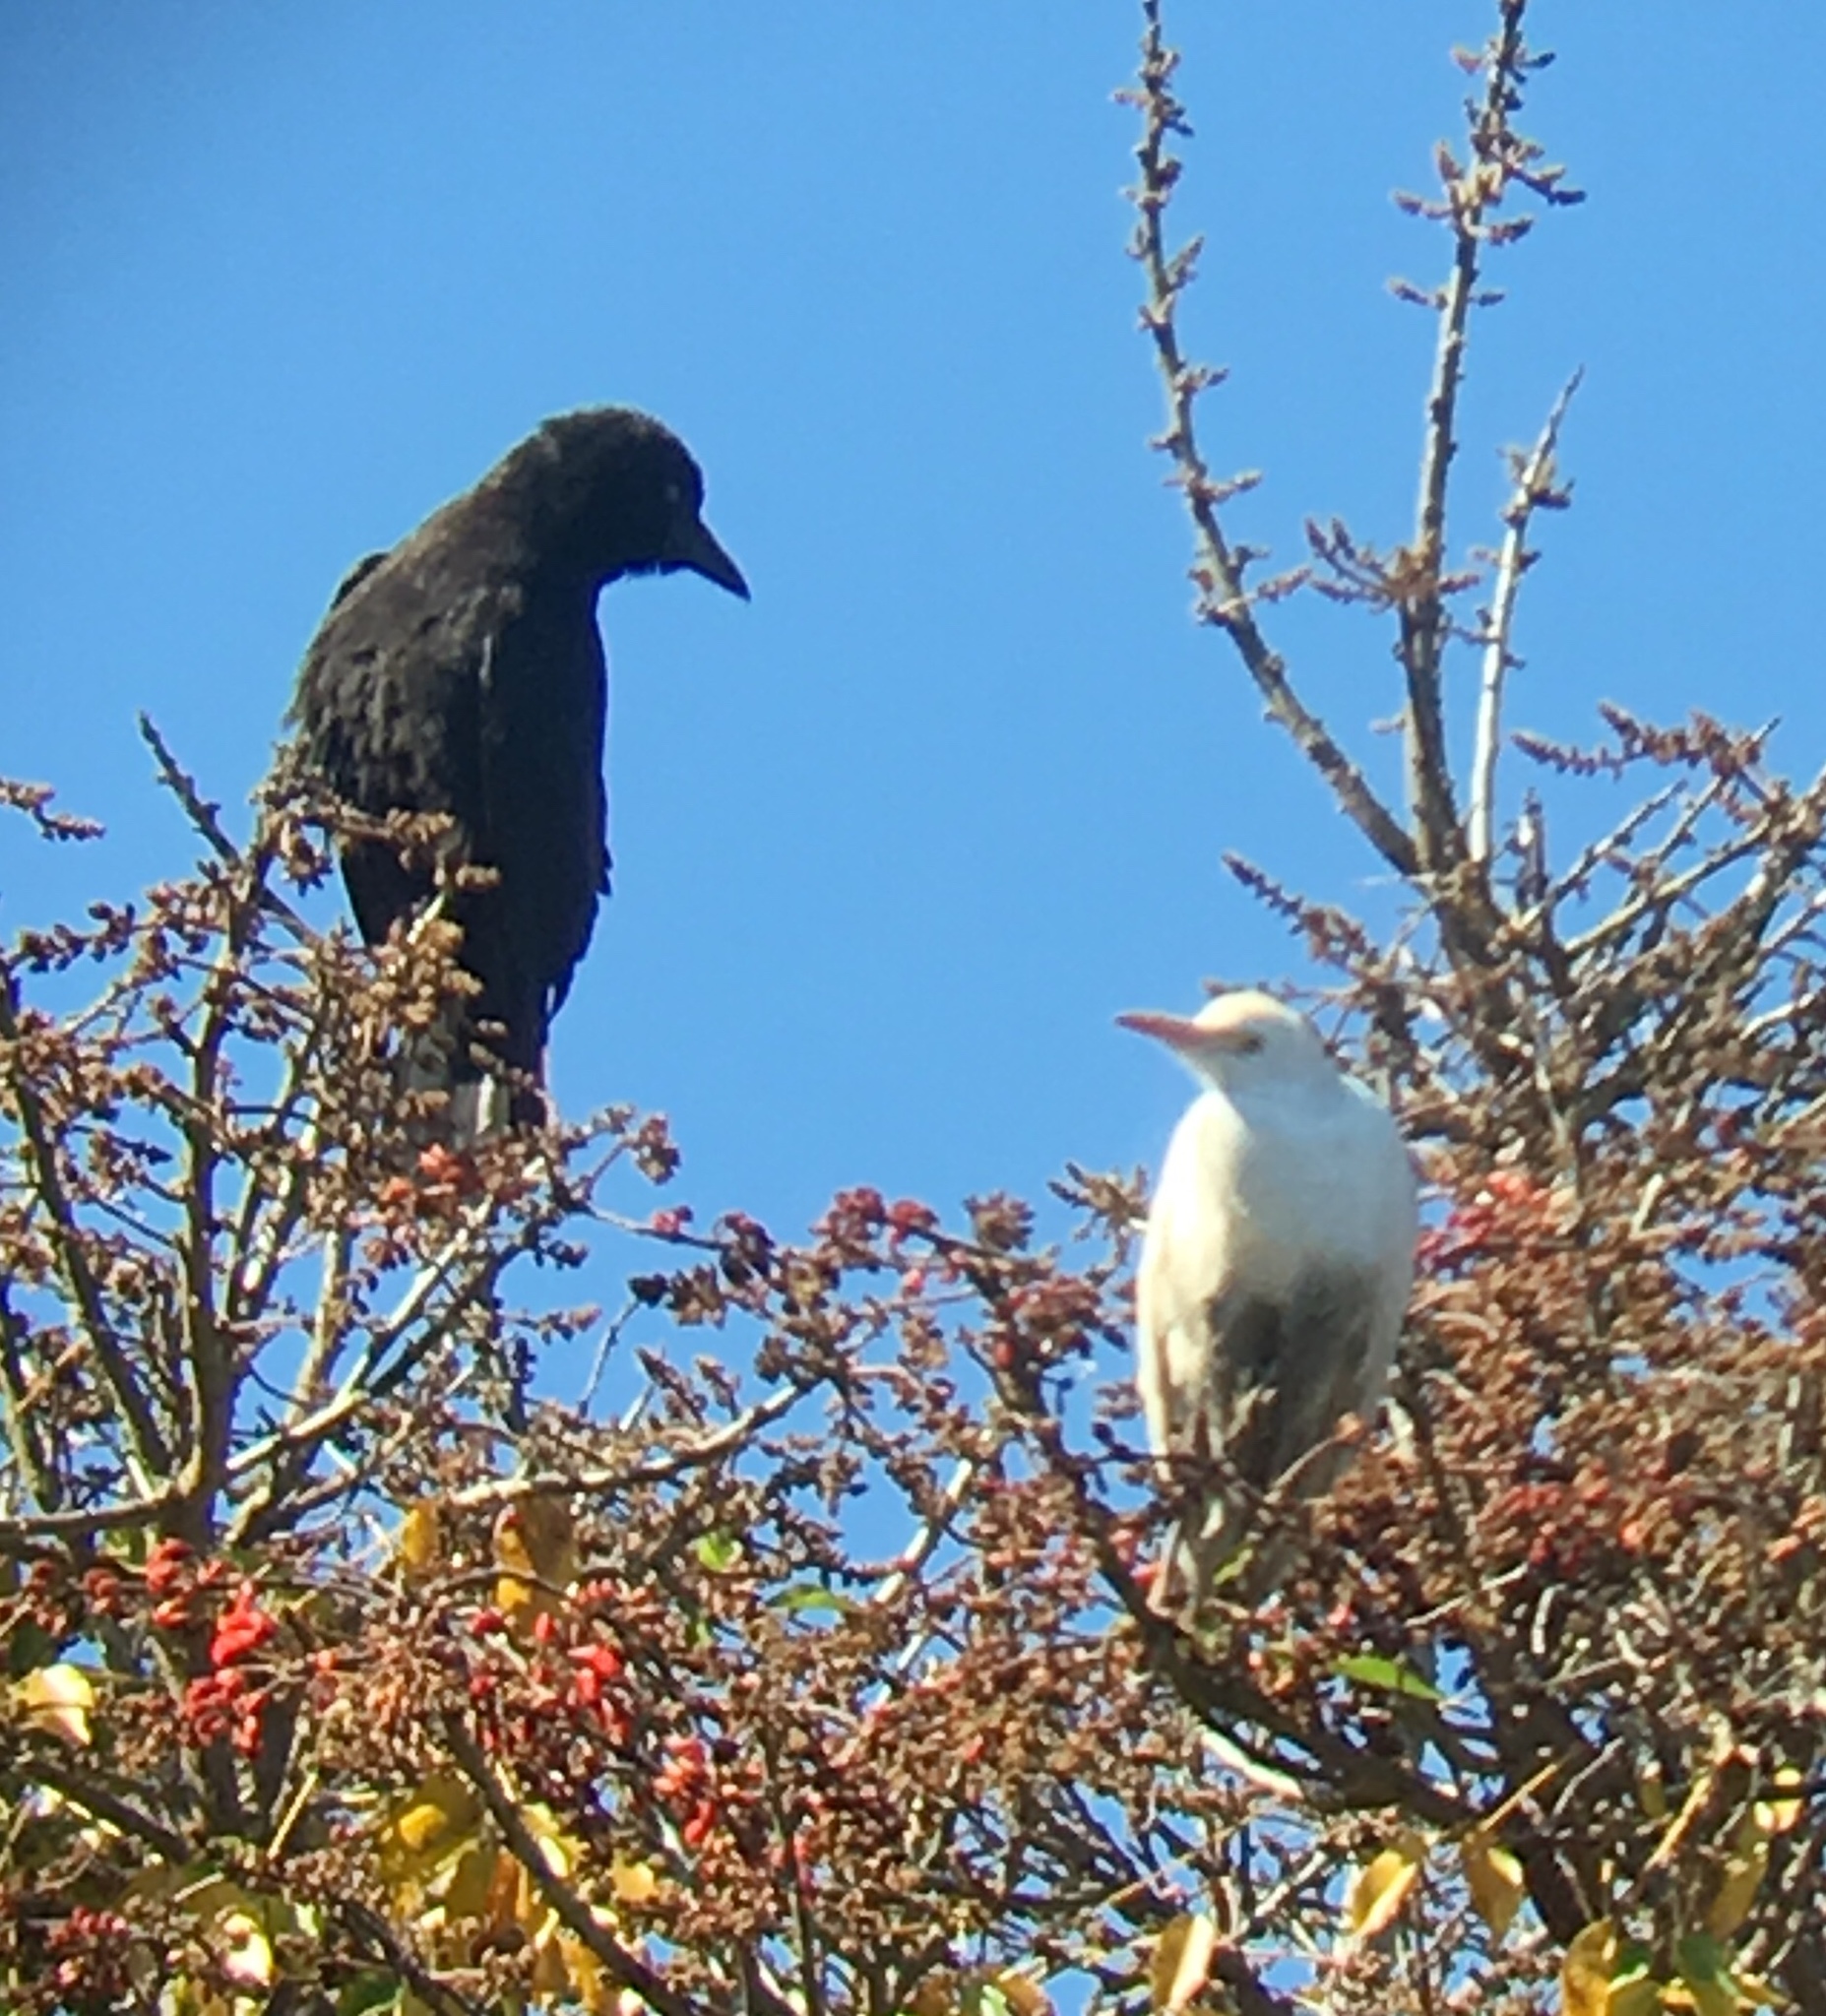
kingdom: Animalia
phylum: Chordata
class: Aves
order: Pelecaniformes
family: Ardeidae
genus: Bubulcus
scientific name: Bubulcus ibis
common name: Cattle egret
